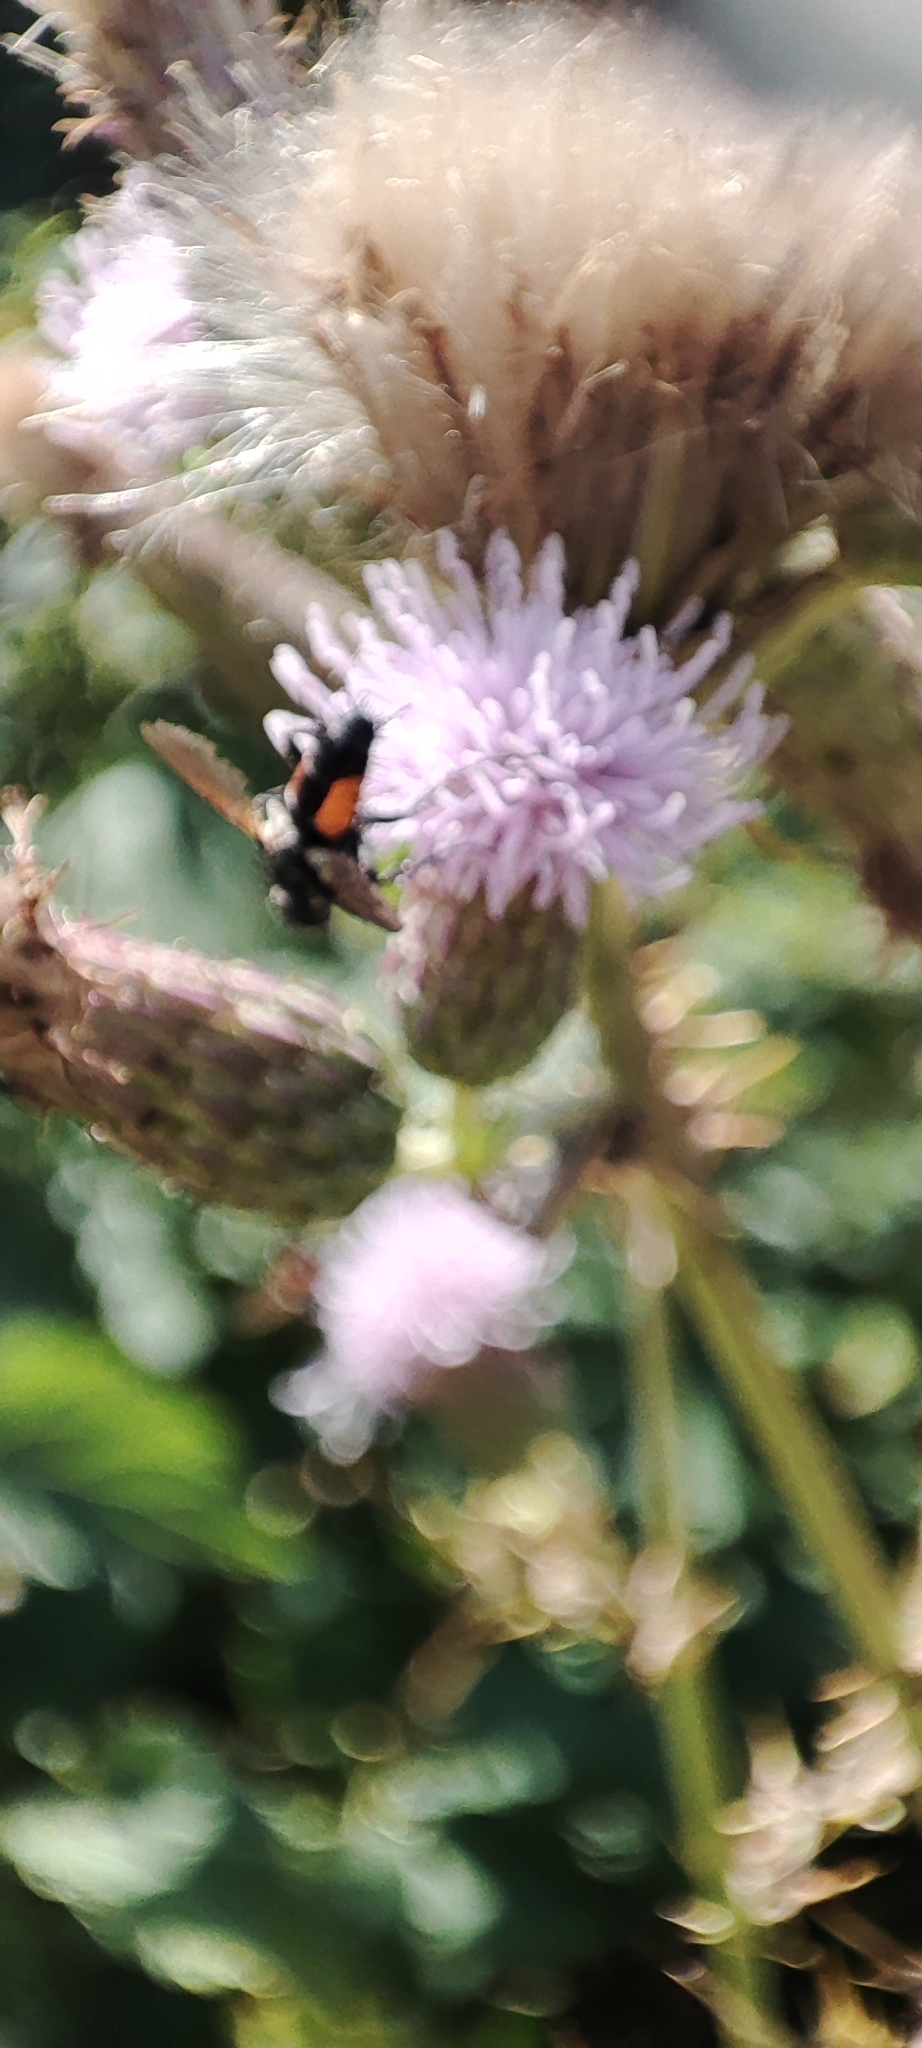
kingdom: Animalia
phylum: Arthropoda
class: Insecta
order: Diptera
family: Tachinidae
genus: Eriothrix
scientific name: Eriothrix rufomaculatus
